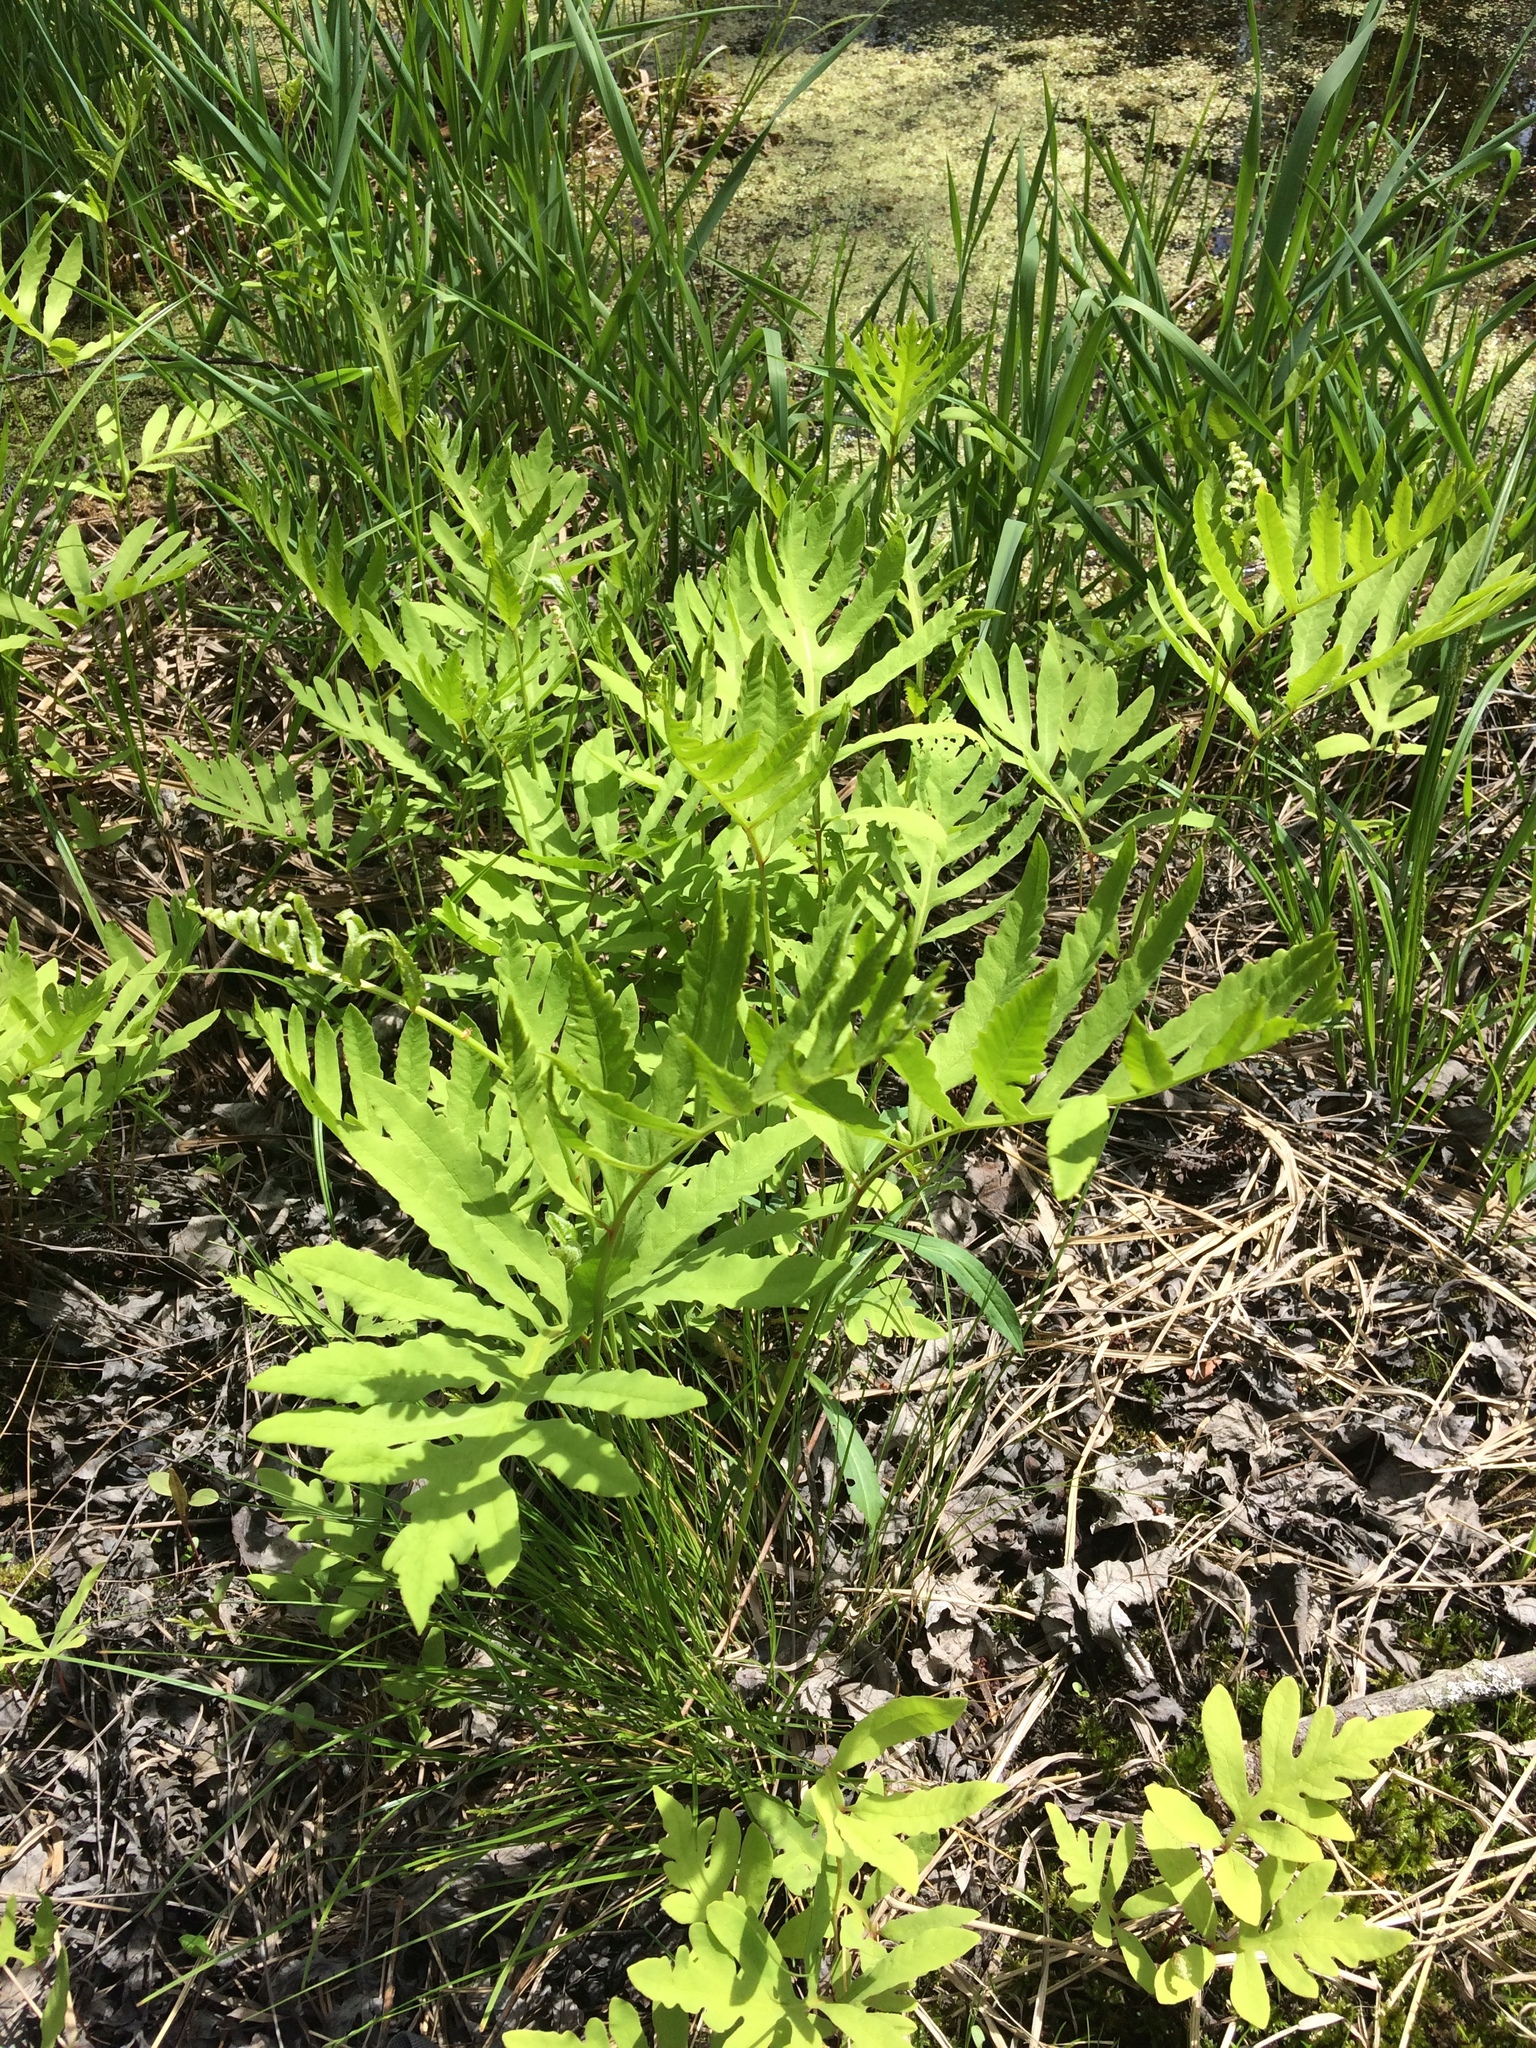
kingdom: Plantae
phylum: Tracheophyta
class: Polypodiopsida
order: Polypodiales
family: Onocleaceae
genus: Onoclea
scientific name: Onoclea sensibilis
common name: Sensitive fern
